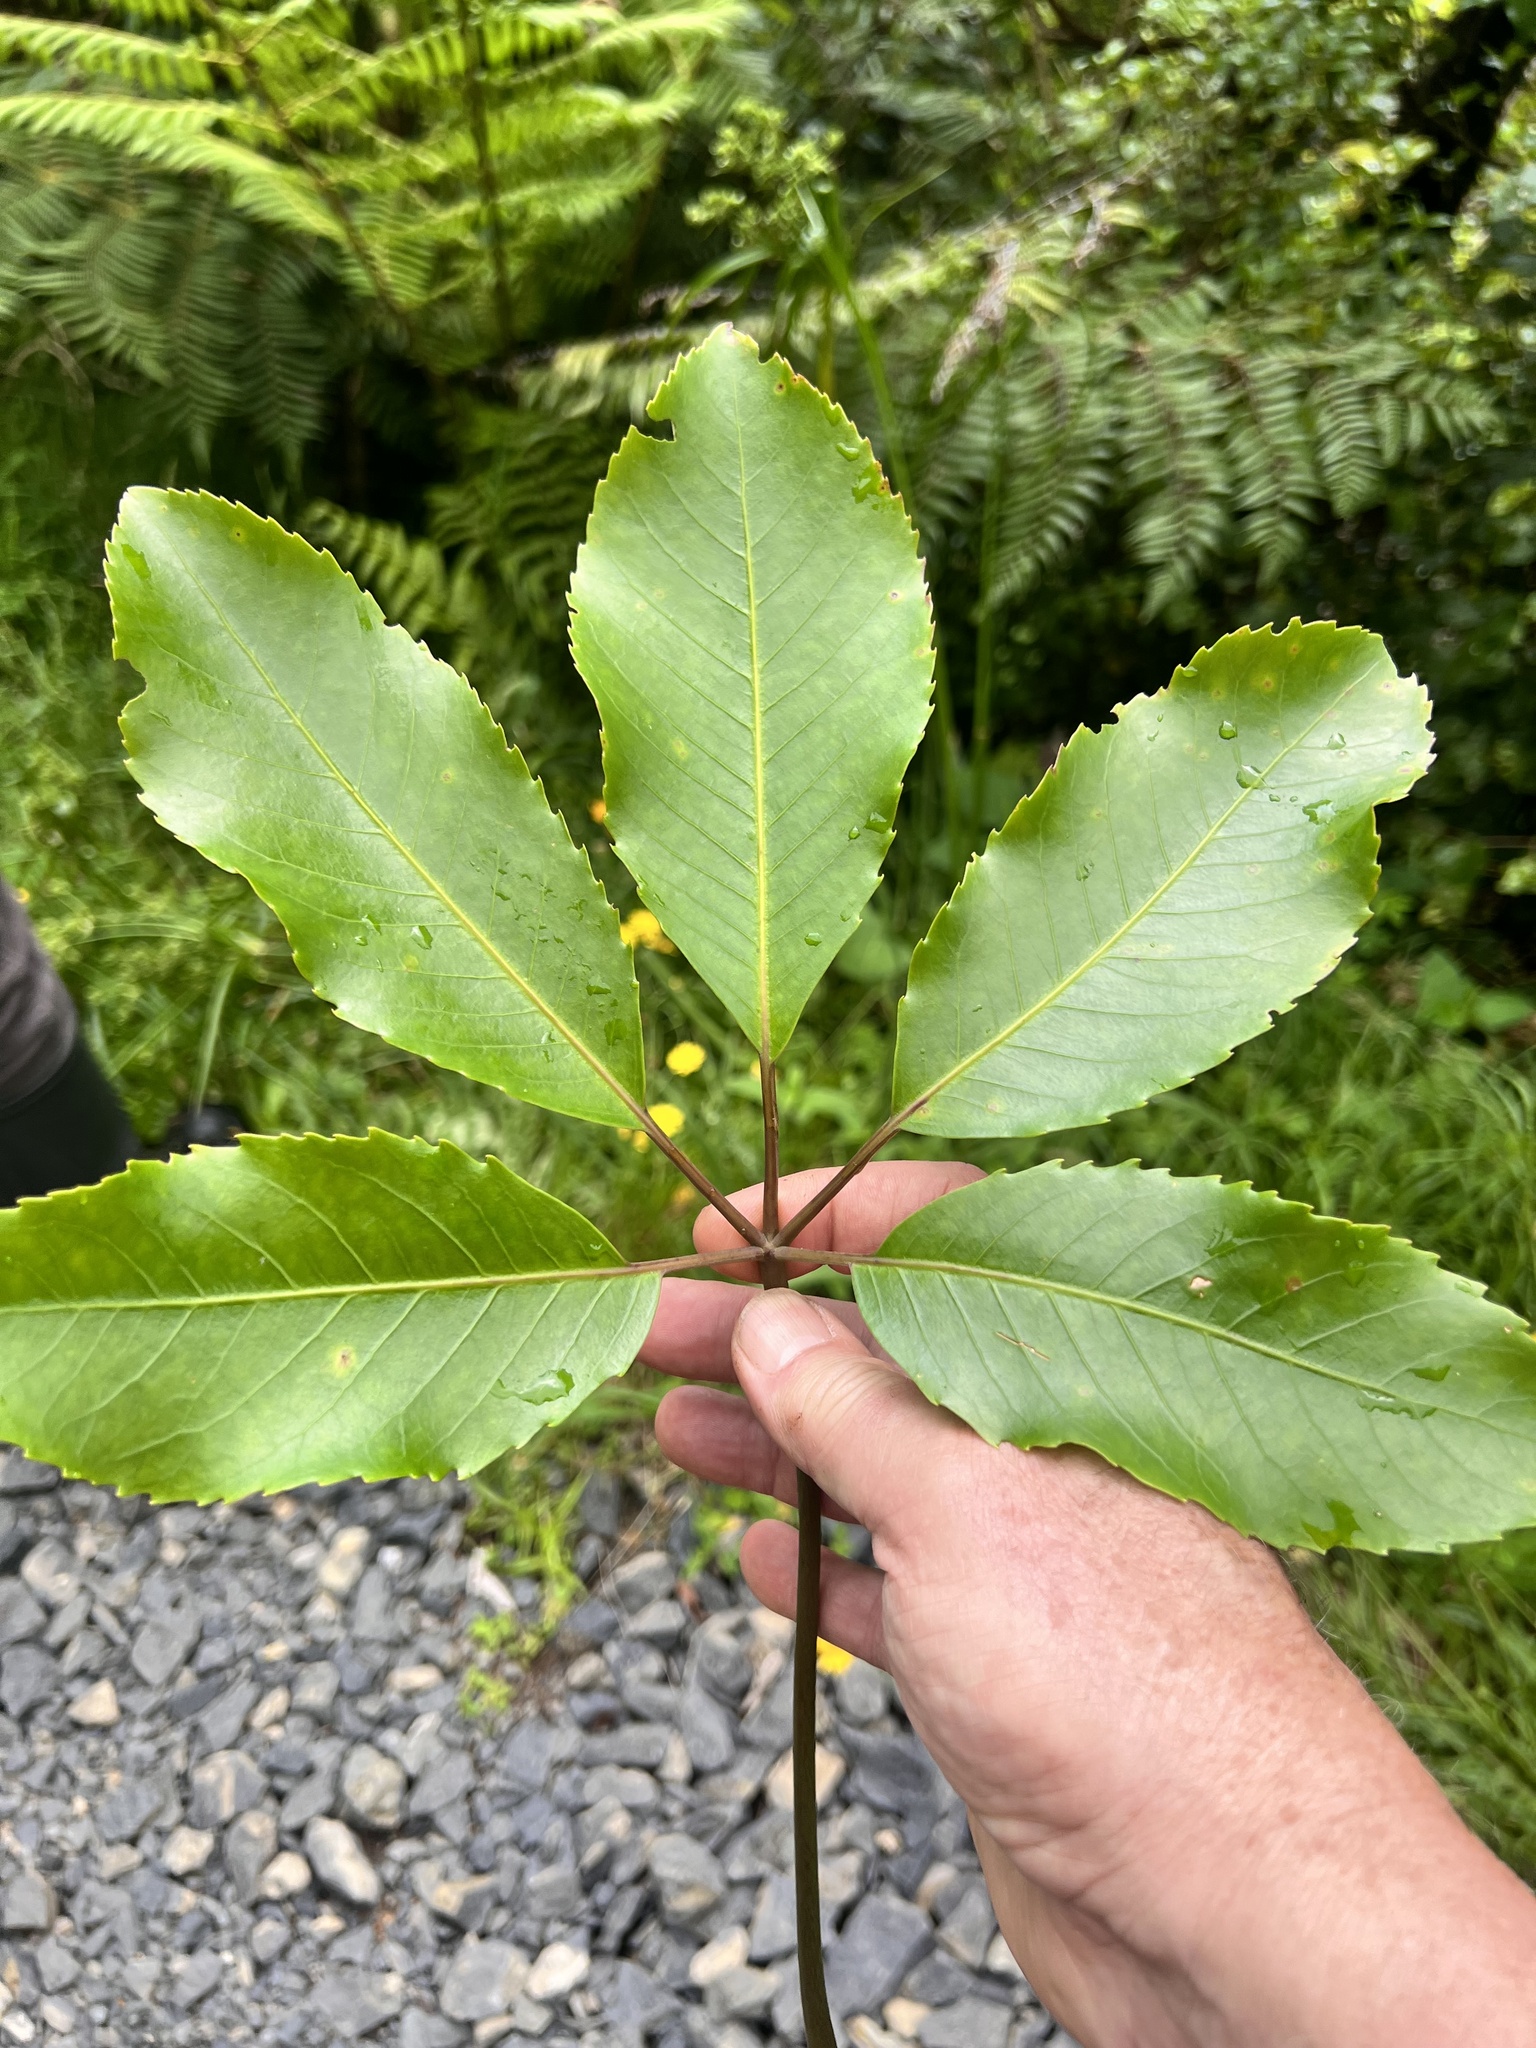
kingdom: Plantae
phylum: Tracheophyta
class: Magnoliopsida
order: Apiales
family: Araliaceae
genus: Neopanax
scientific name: Neopanax arboreus
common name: Five-fingers
